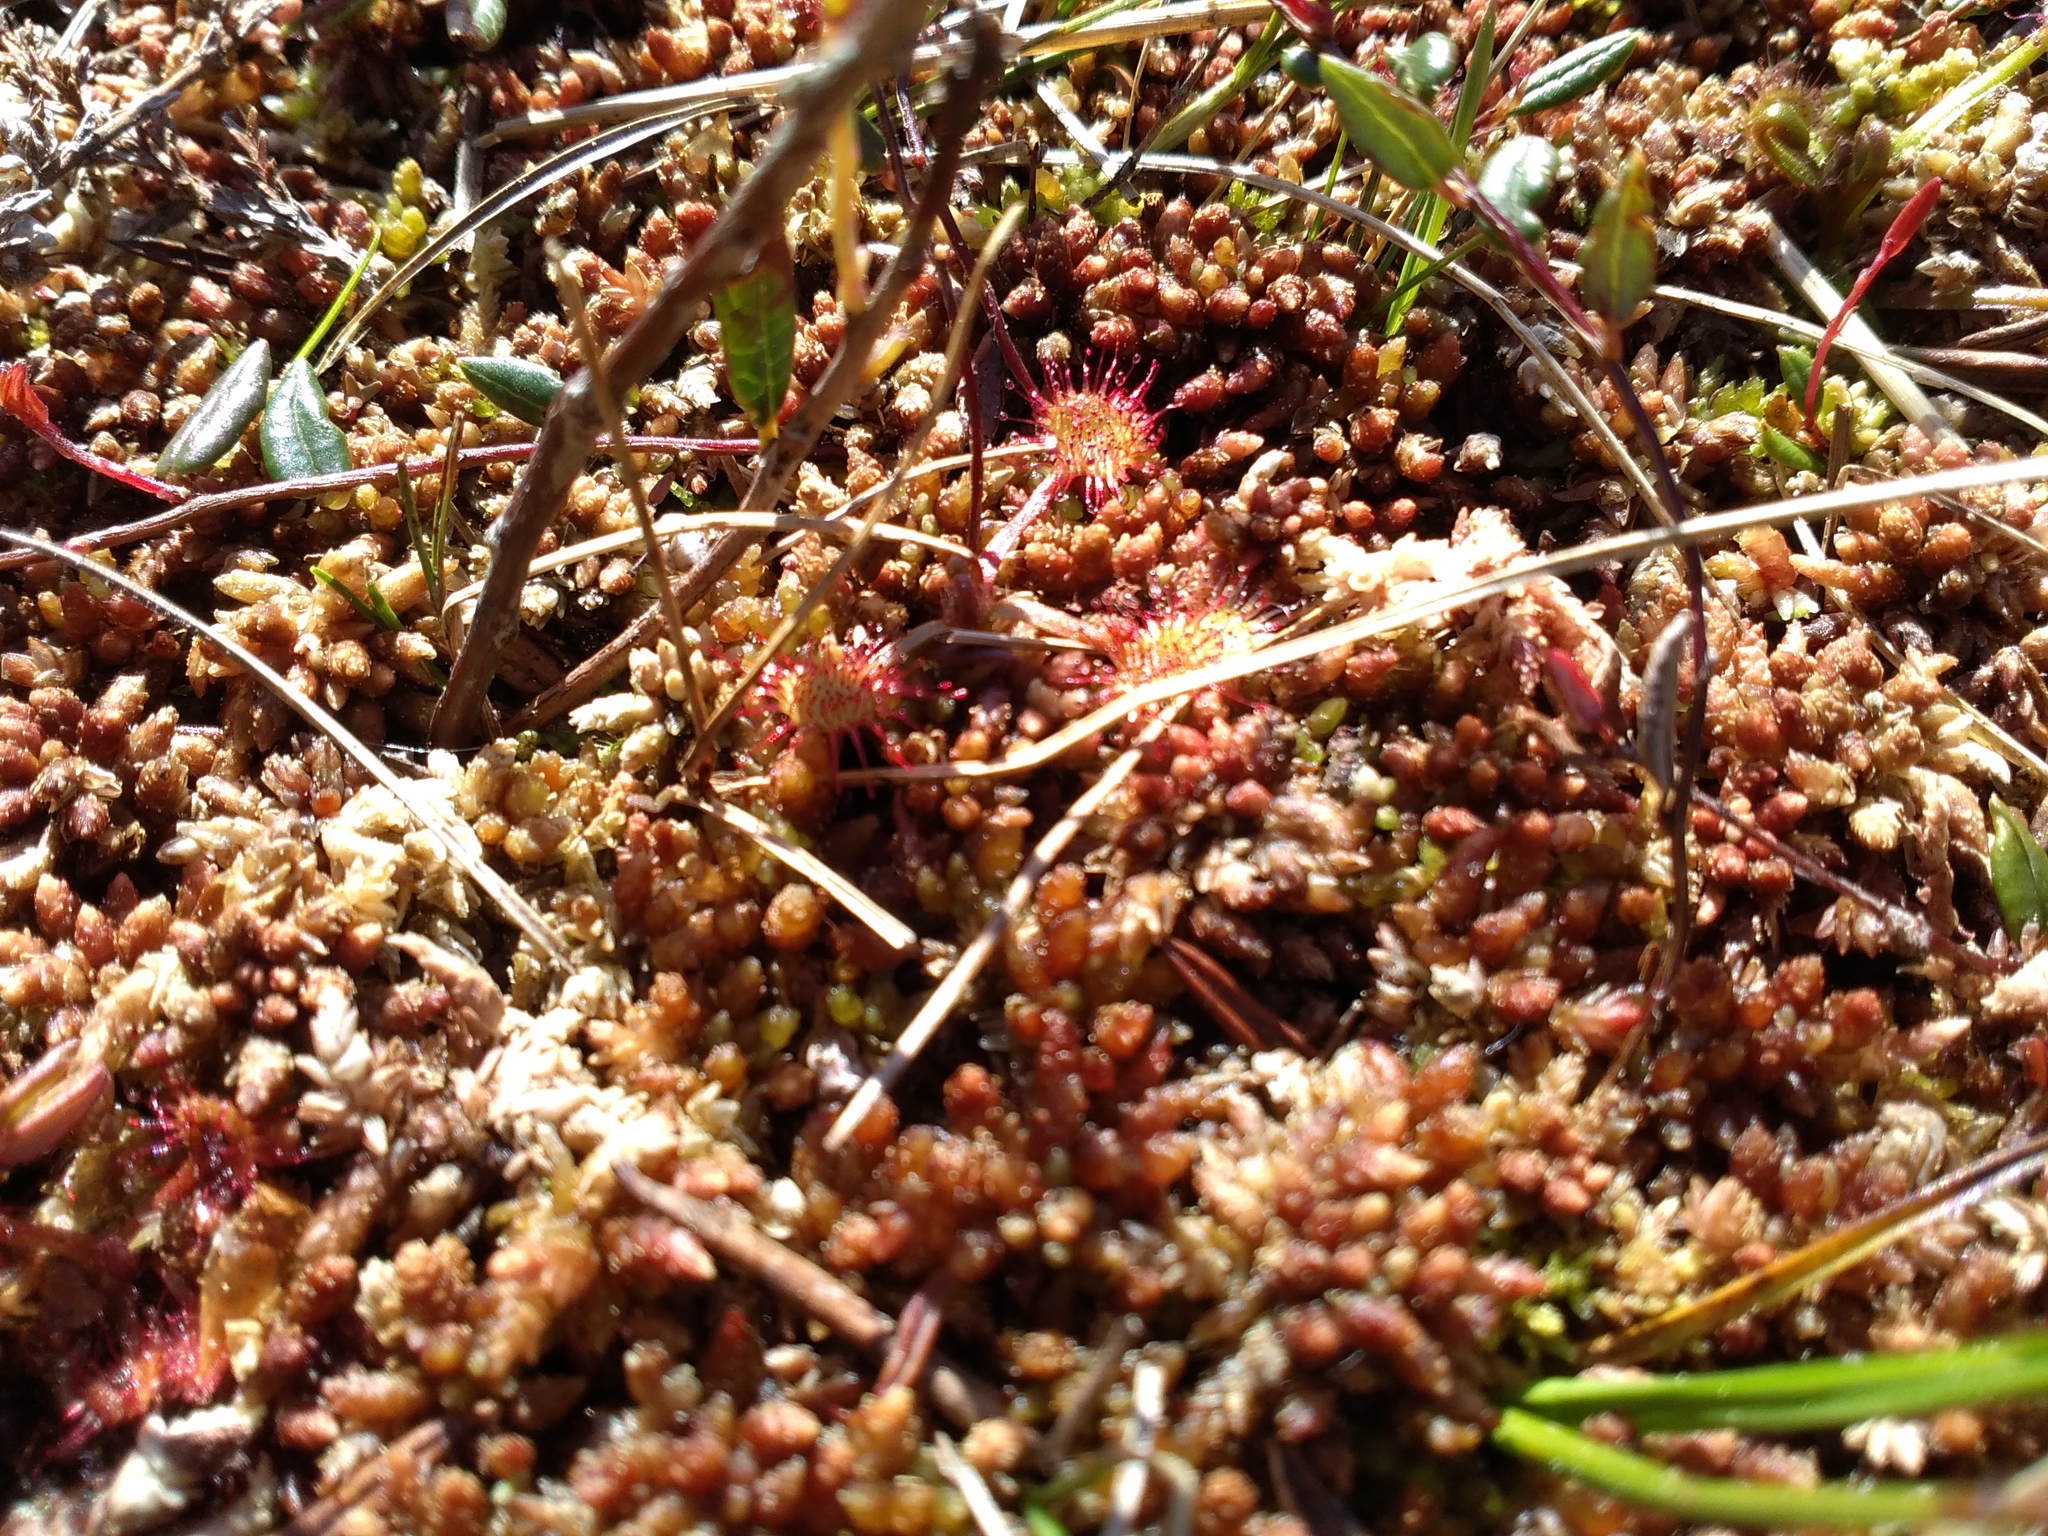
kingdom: Plantae
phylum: Tracheophyta
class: Magnoliopsida
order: Caryophyllales
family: Droseraceae
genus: Drosera
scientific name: Drosera rotundifolia
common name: Round-leaved sundew
